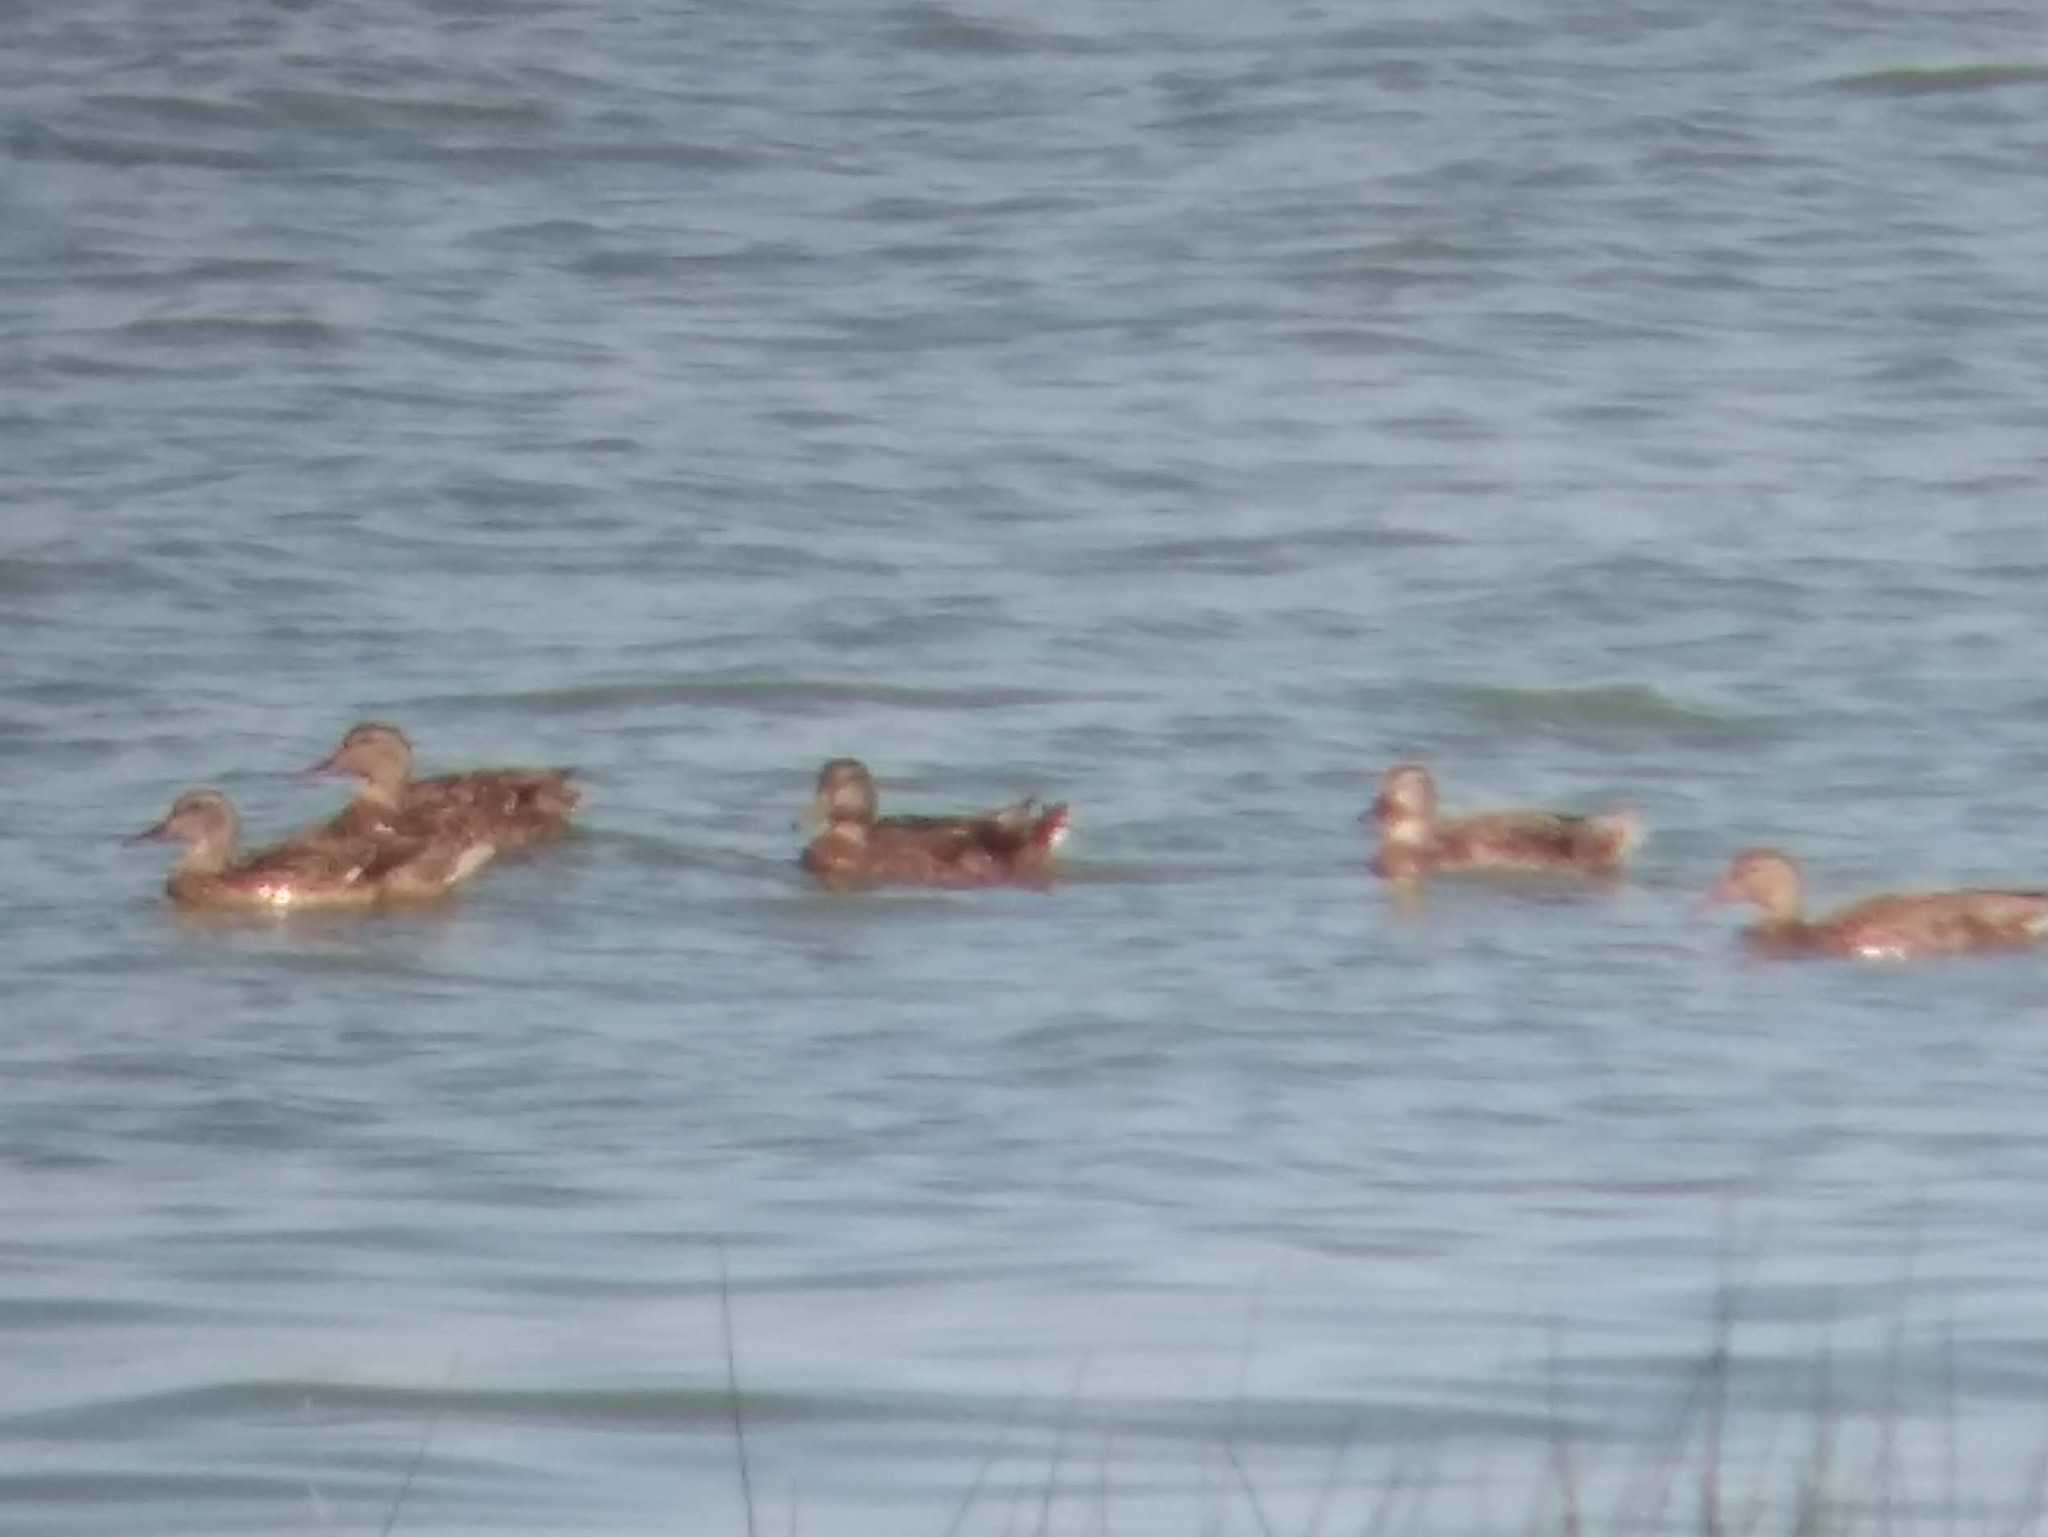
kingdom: Animalia
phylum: Chordata
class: Aves
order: Anseriformes
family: Anatidae
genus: Anas
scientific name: Anas platyrhynchos
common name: Mallard
